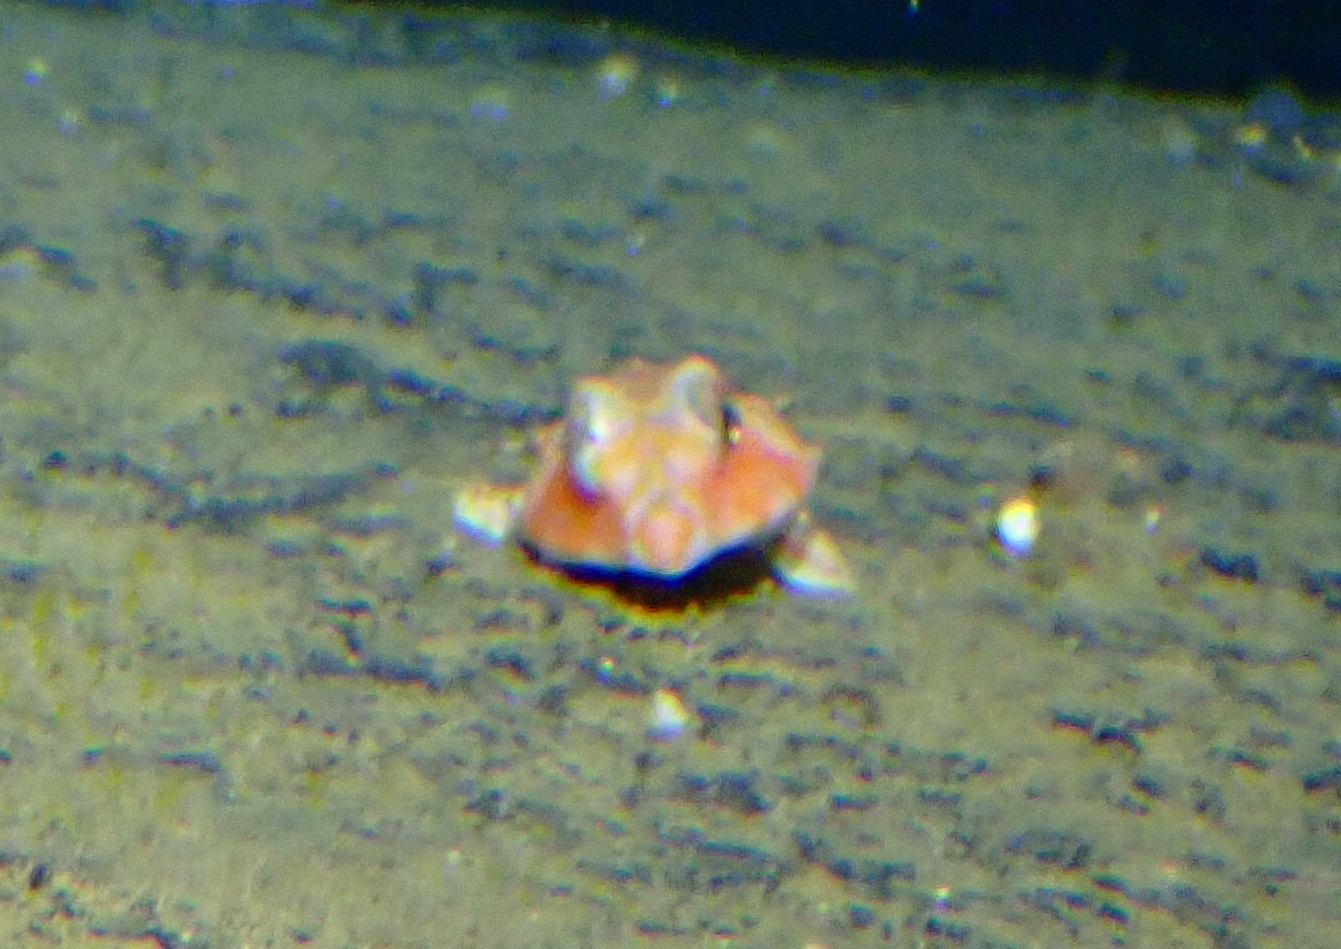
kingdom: Animalia
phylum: Chordata
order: Perciformes
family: Callionymidae
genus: Foetorepus
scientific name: Foetorepus agassizii
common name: Spotfin dragonet
